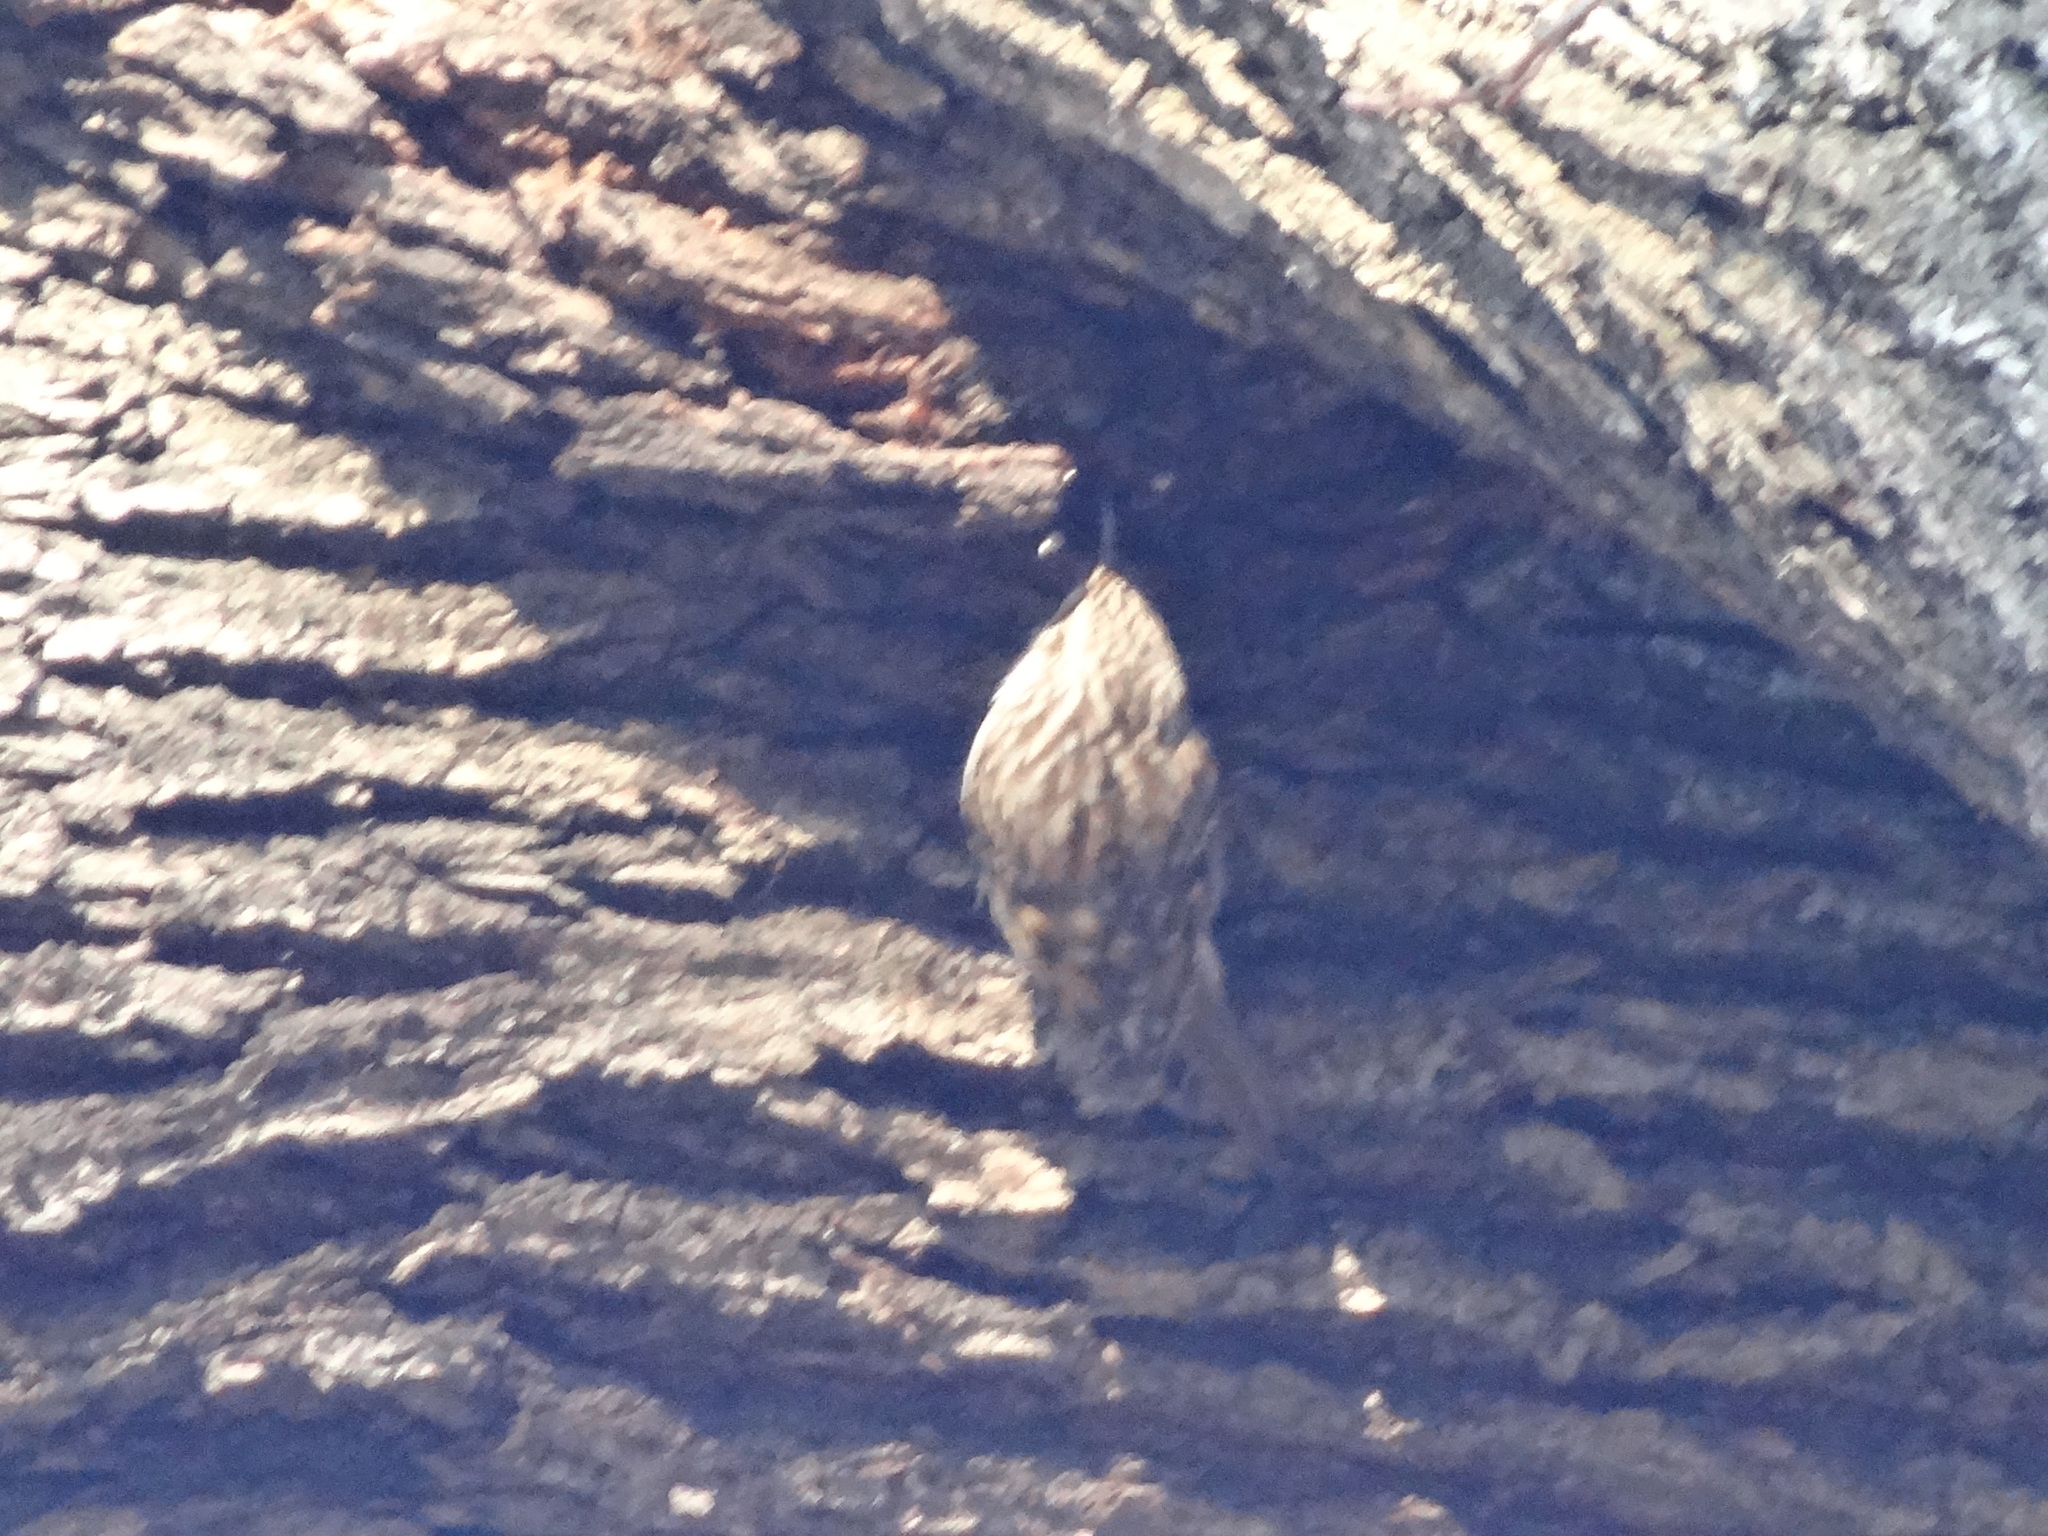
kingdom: Animalia
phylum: Chordata
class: Aves
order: Passeriformes
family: Certhiidae
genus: Certhia
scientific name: Certhia brachydactyla
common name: Short-toed treecreeper
